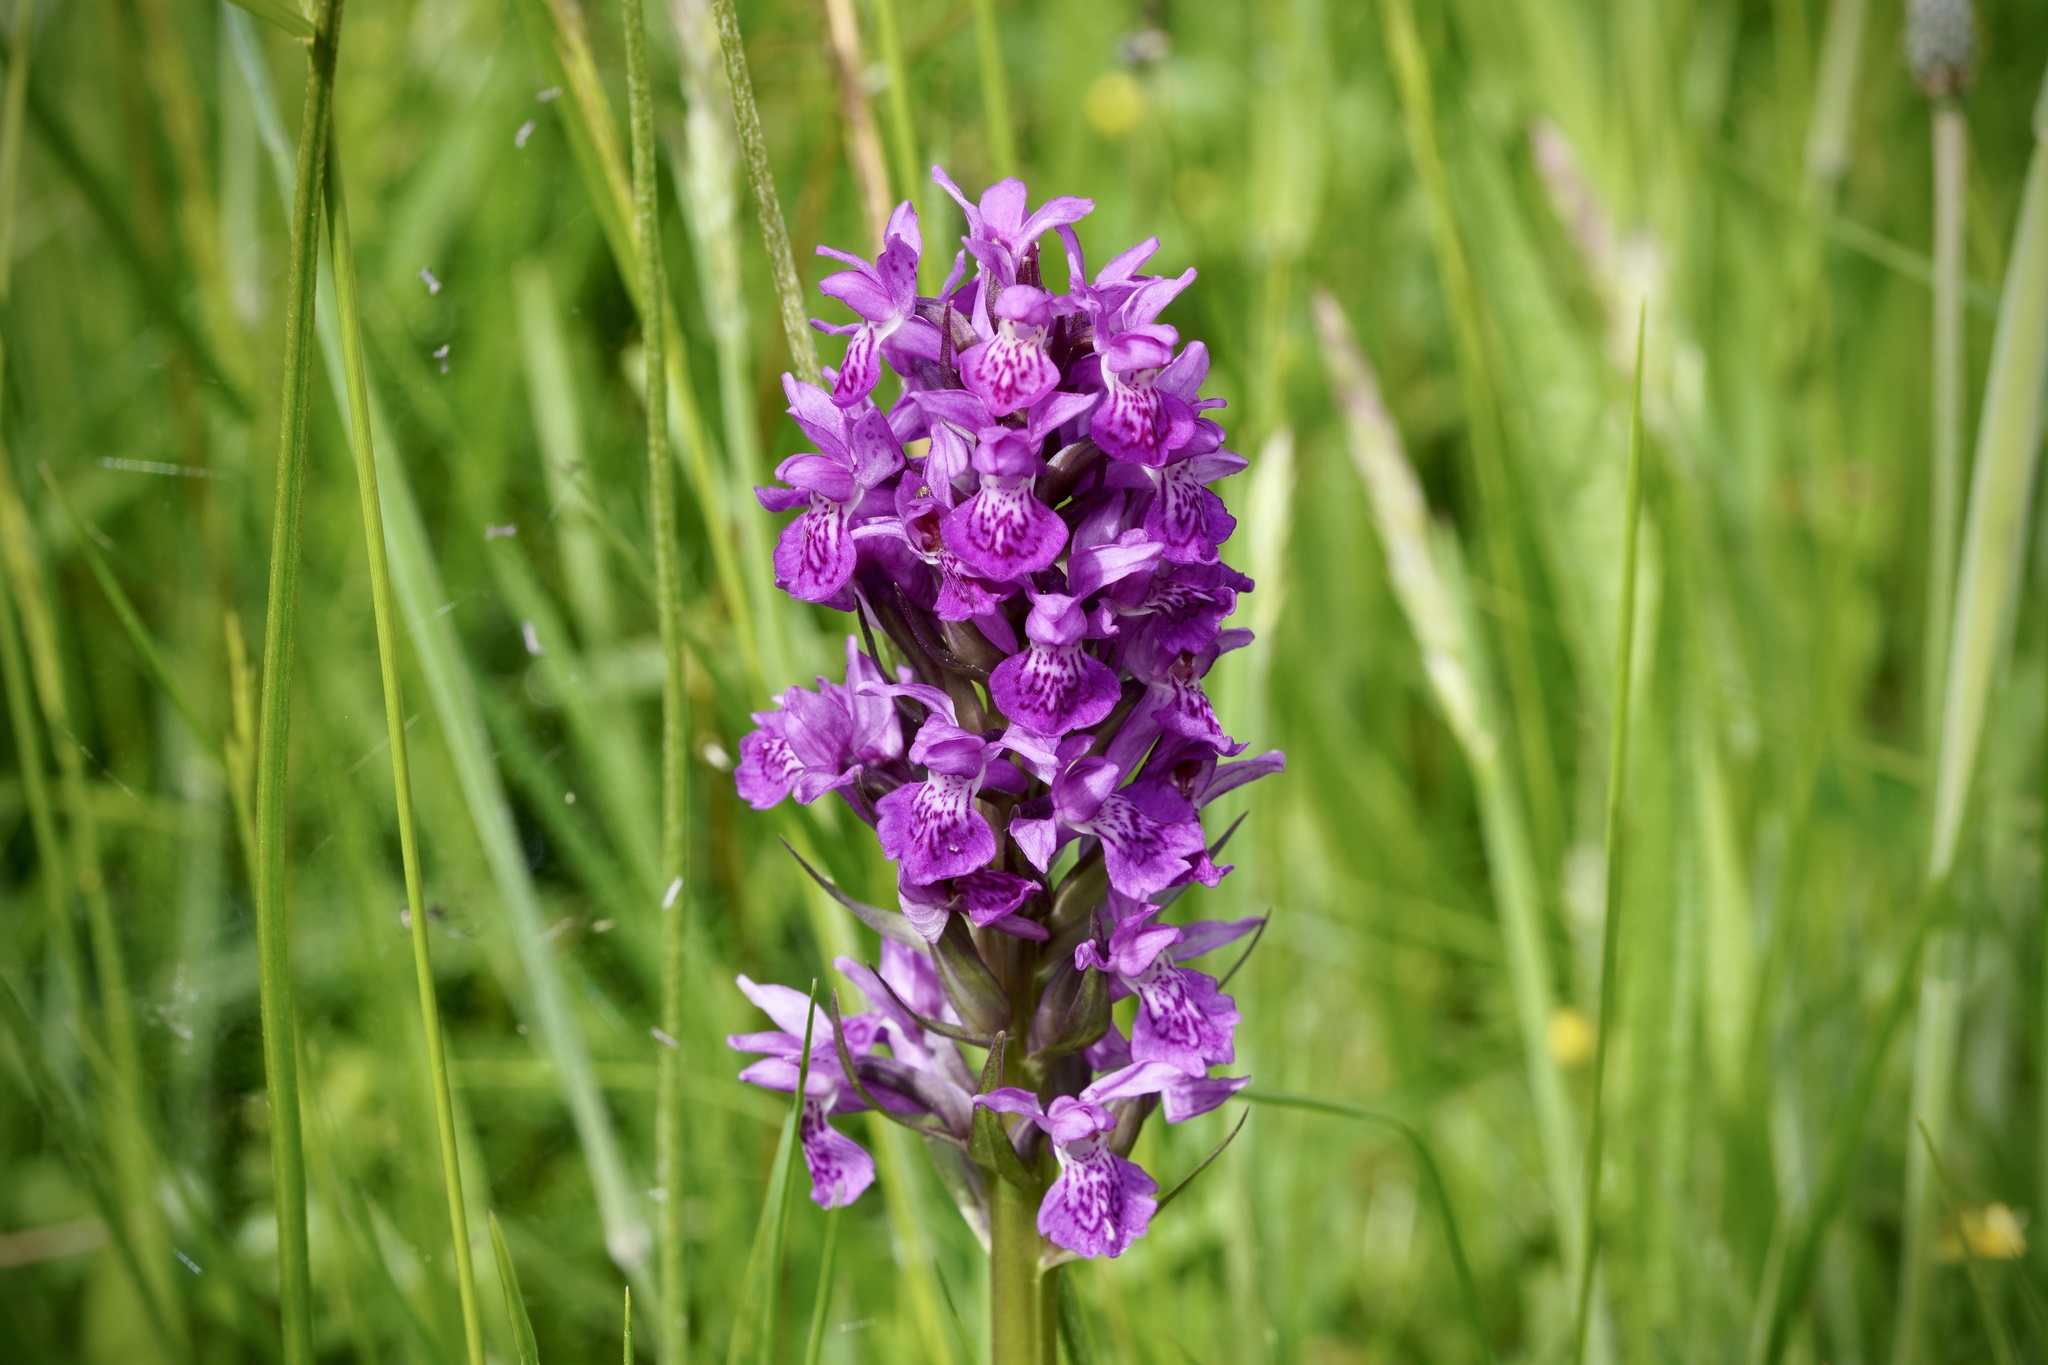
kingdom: Plantae
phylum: Tracheophyta
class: Liliopsida
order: Asparagales
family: Orchidaceae
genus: Dactylorhiza
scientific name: Dactylorhiza majalis
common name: Marsh orchid
